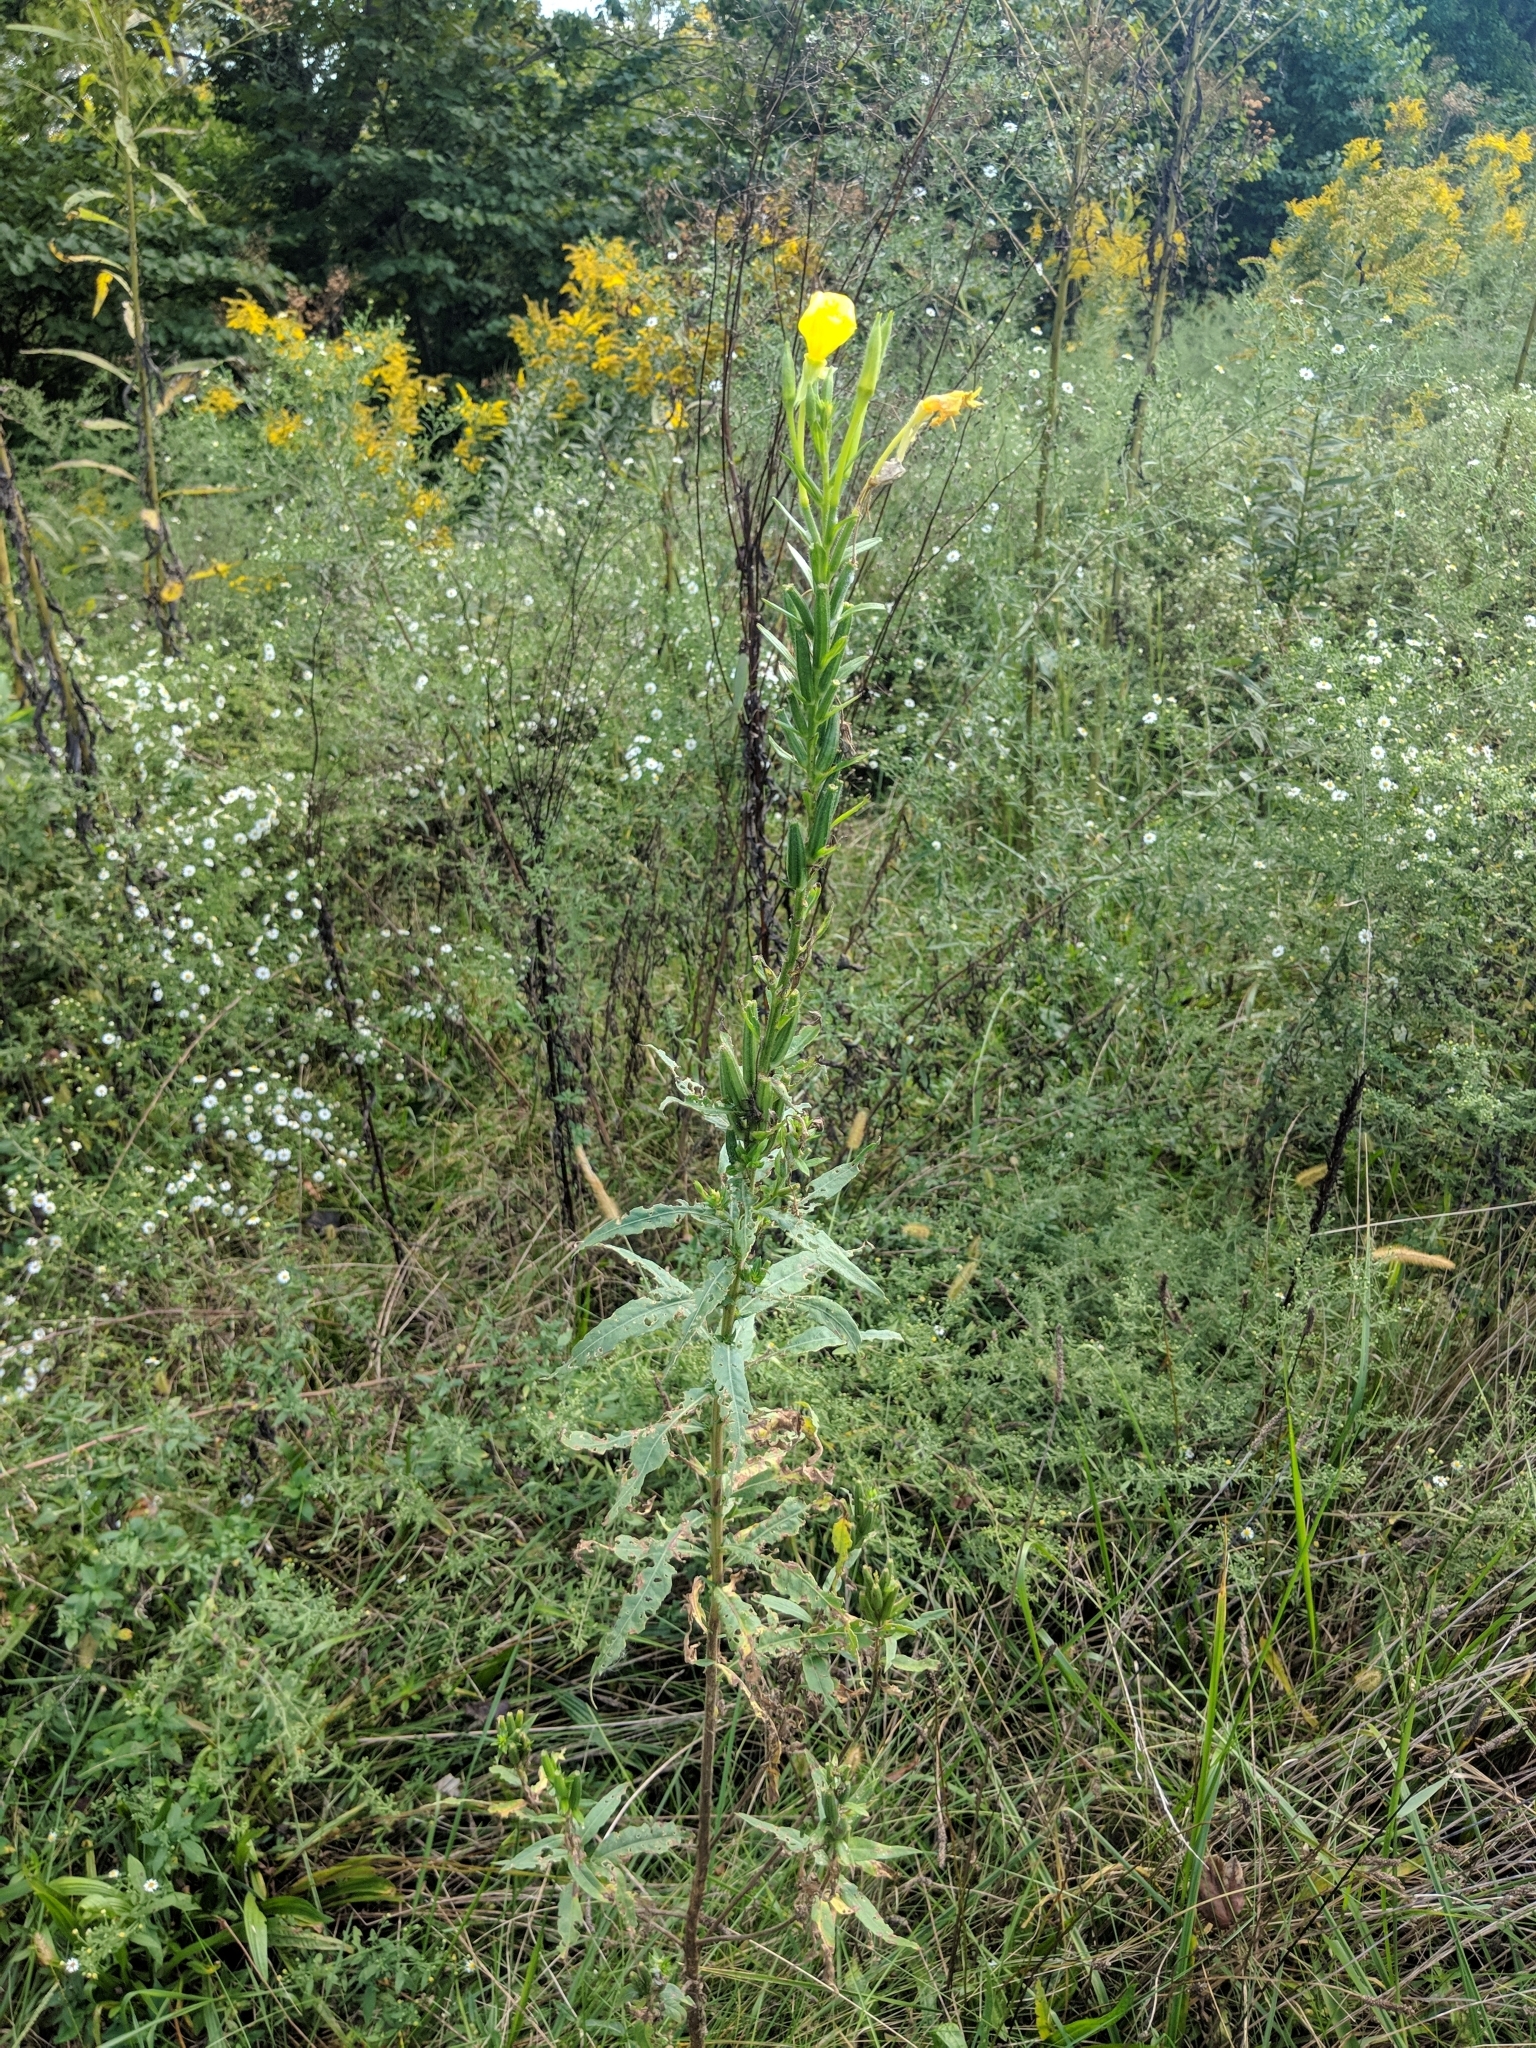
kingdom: Plantae
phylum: Tracheophyta
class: Magnoliopsida
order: Myrtales
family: Onagraceae
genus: Oenothera
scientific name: Oenothera biennis
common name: Common evening-primrose
